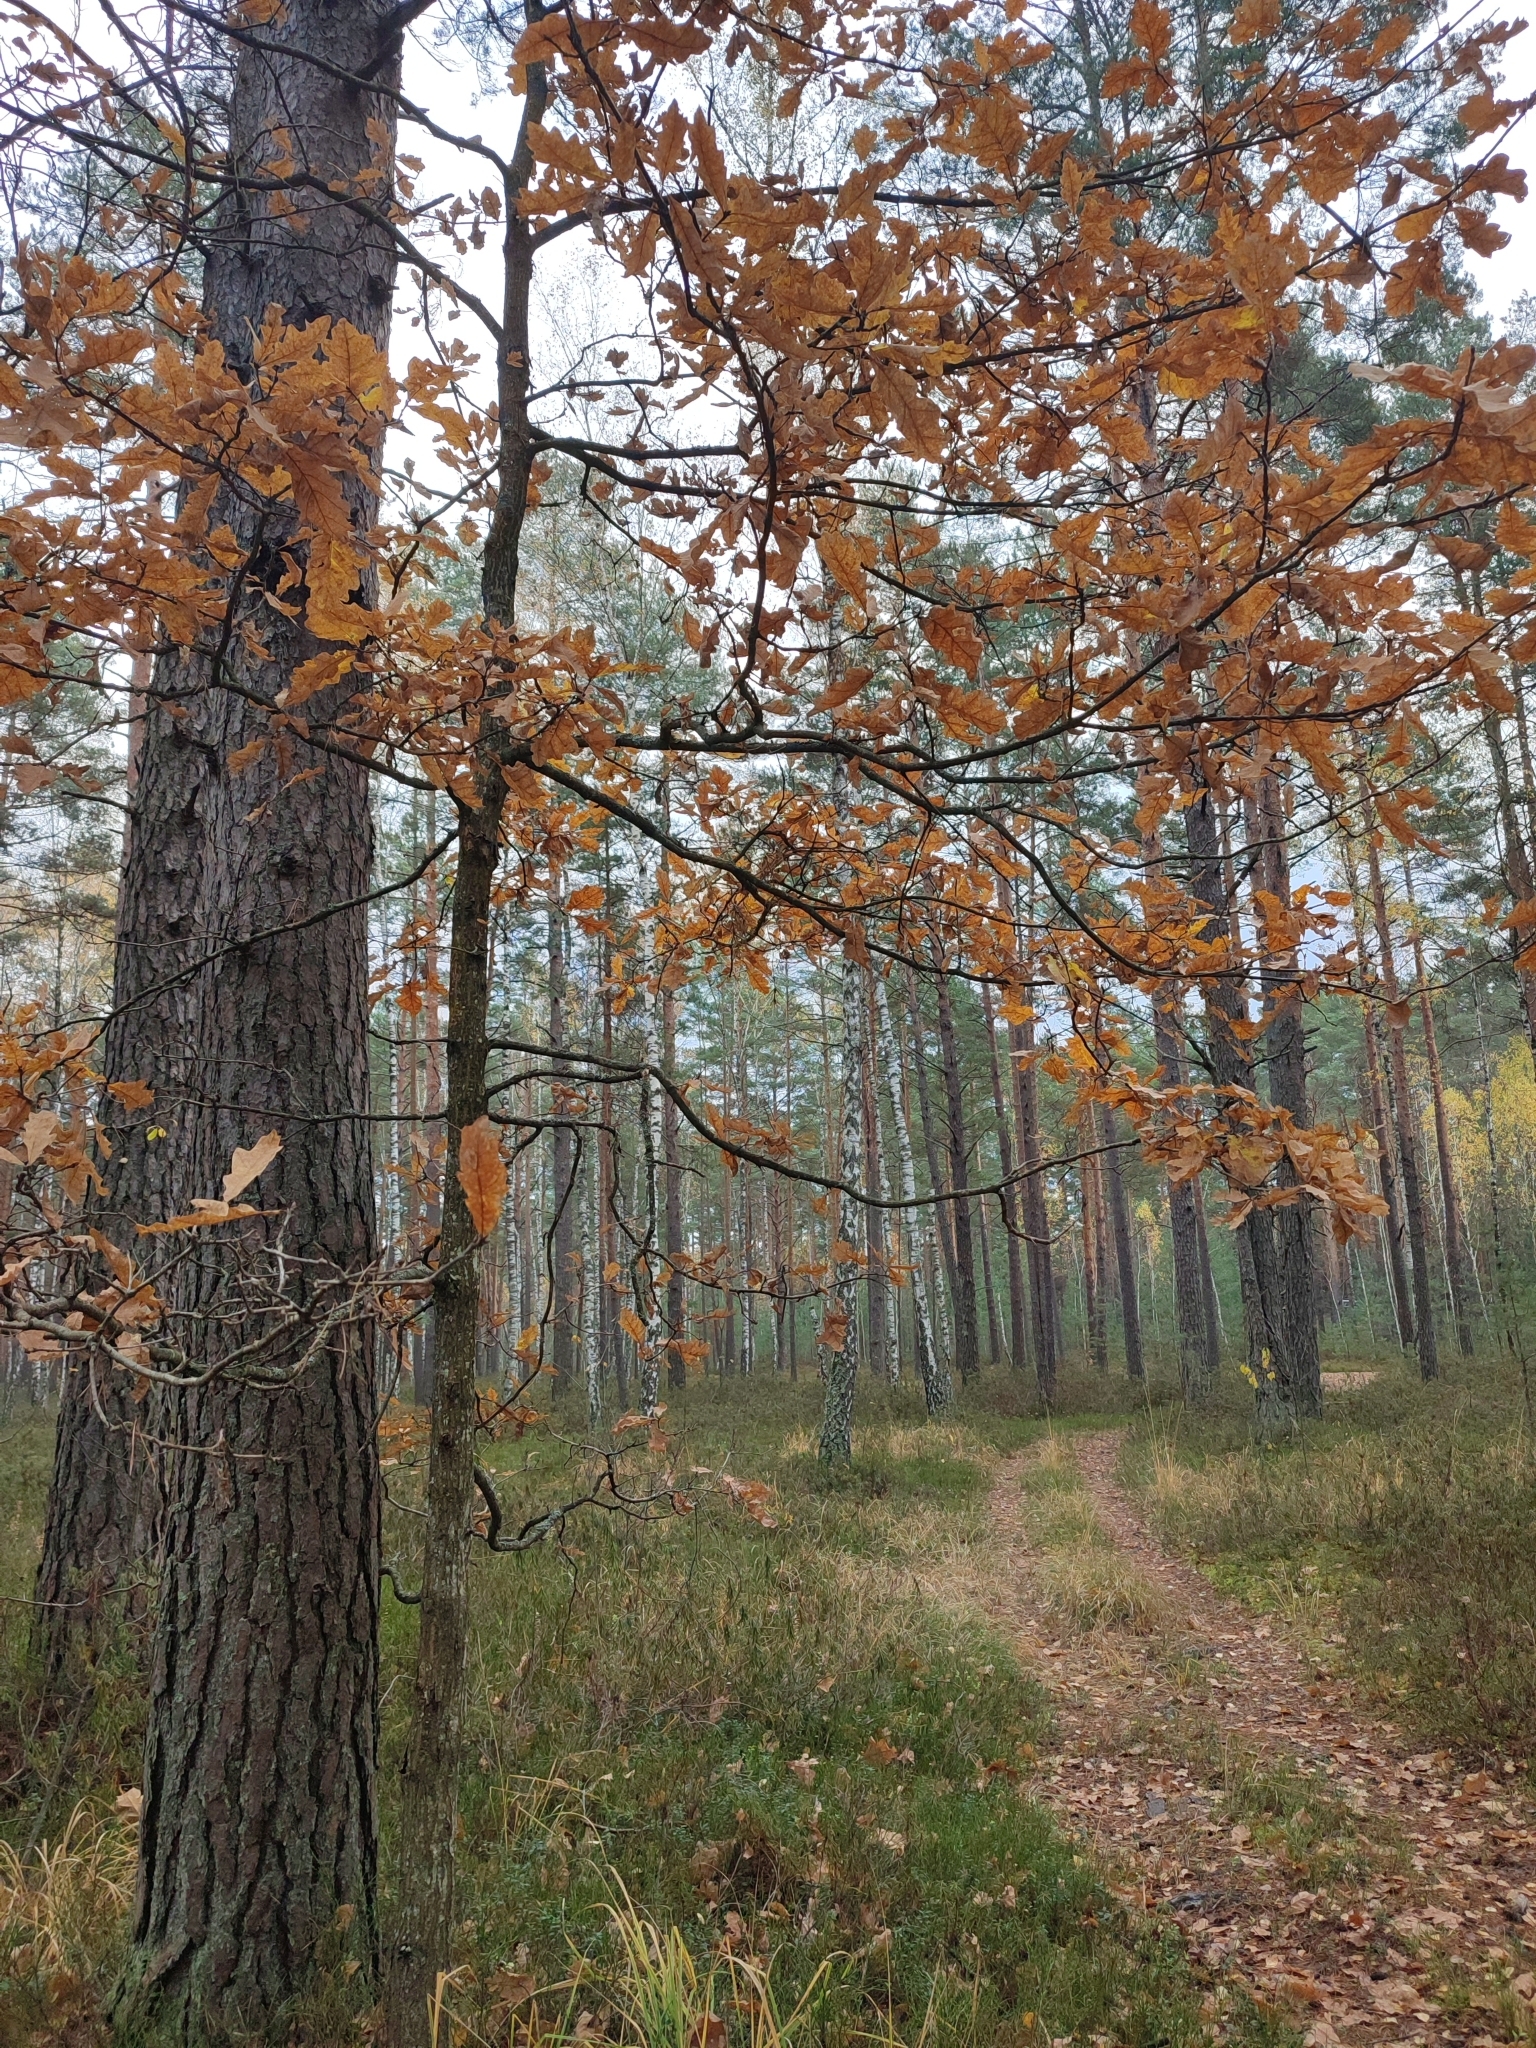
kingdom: Plantae
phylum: Tracheophyta
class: Magnoliopsida
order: Fagales
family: Fagaceae
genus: Quercus
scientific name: Quercus robur
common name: Pedunculate oak
